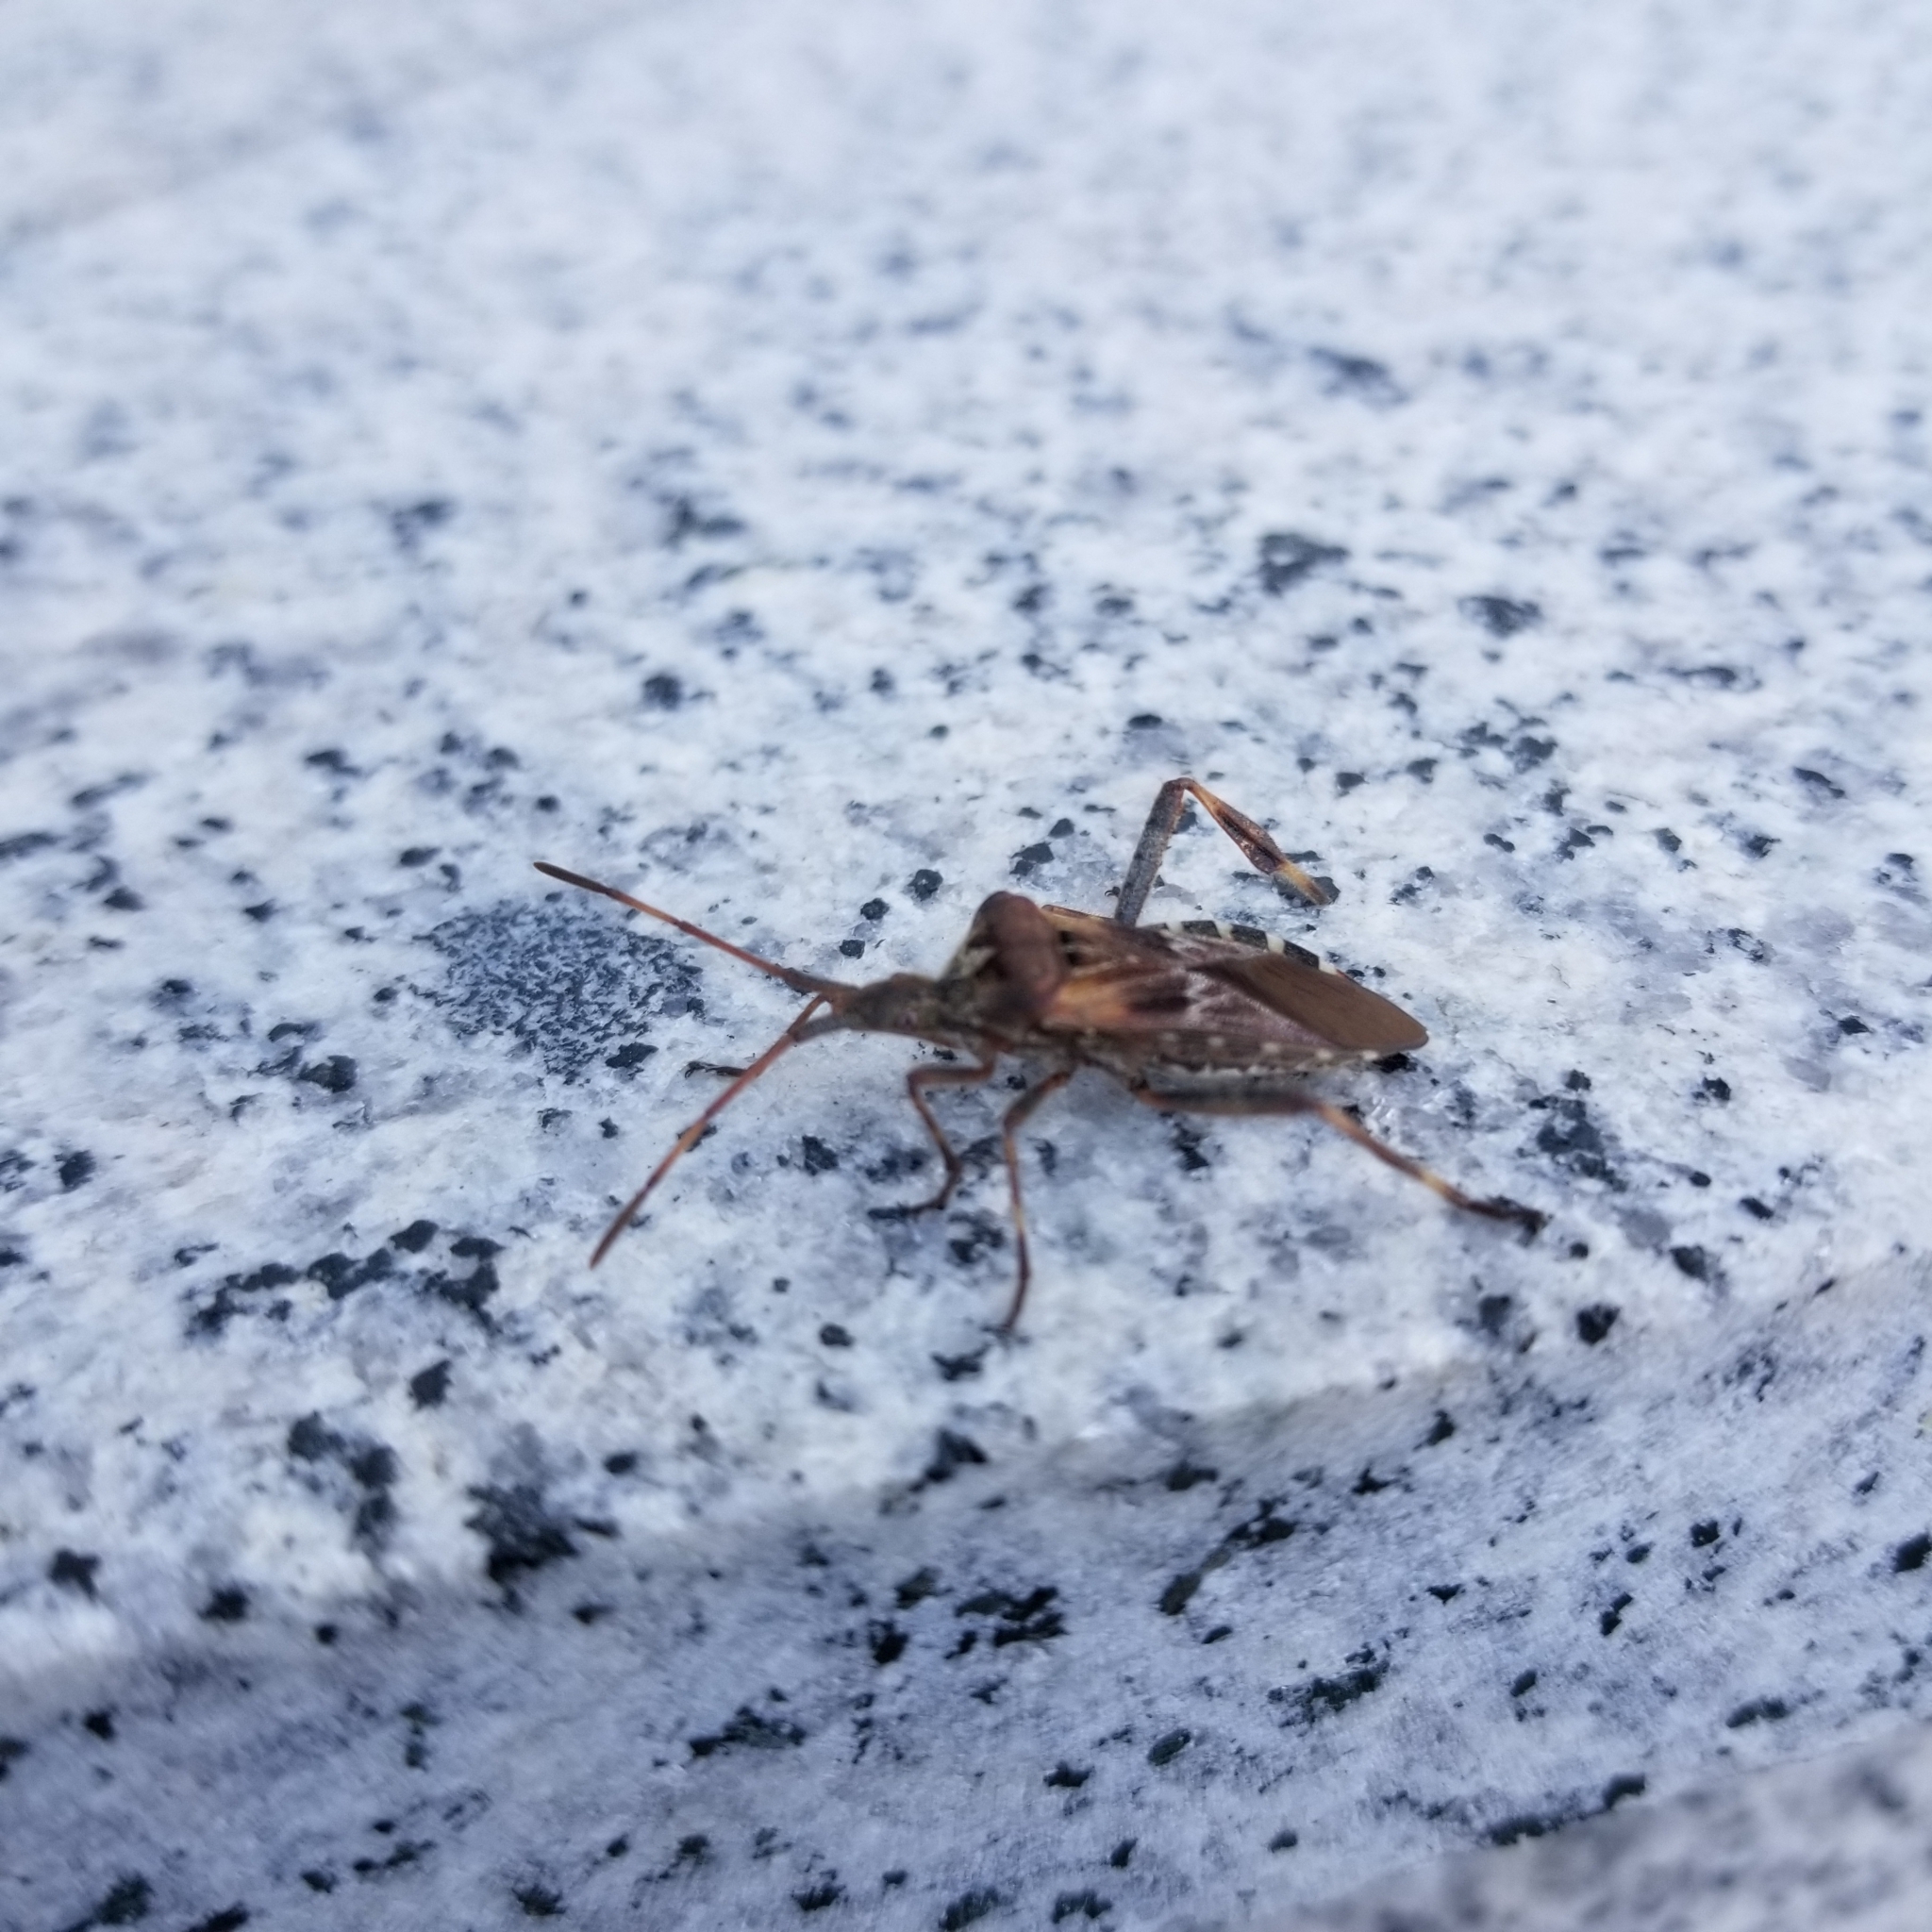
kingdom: Animalia
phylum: Arthropoda
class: Insecta
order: Hemiptera
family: Coreidae
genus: Leptoglossus
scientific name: Leptoglossus occidentalis
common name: Western conifer-seed bug
